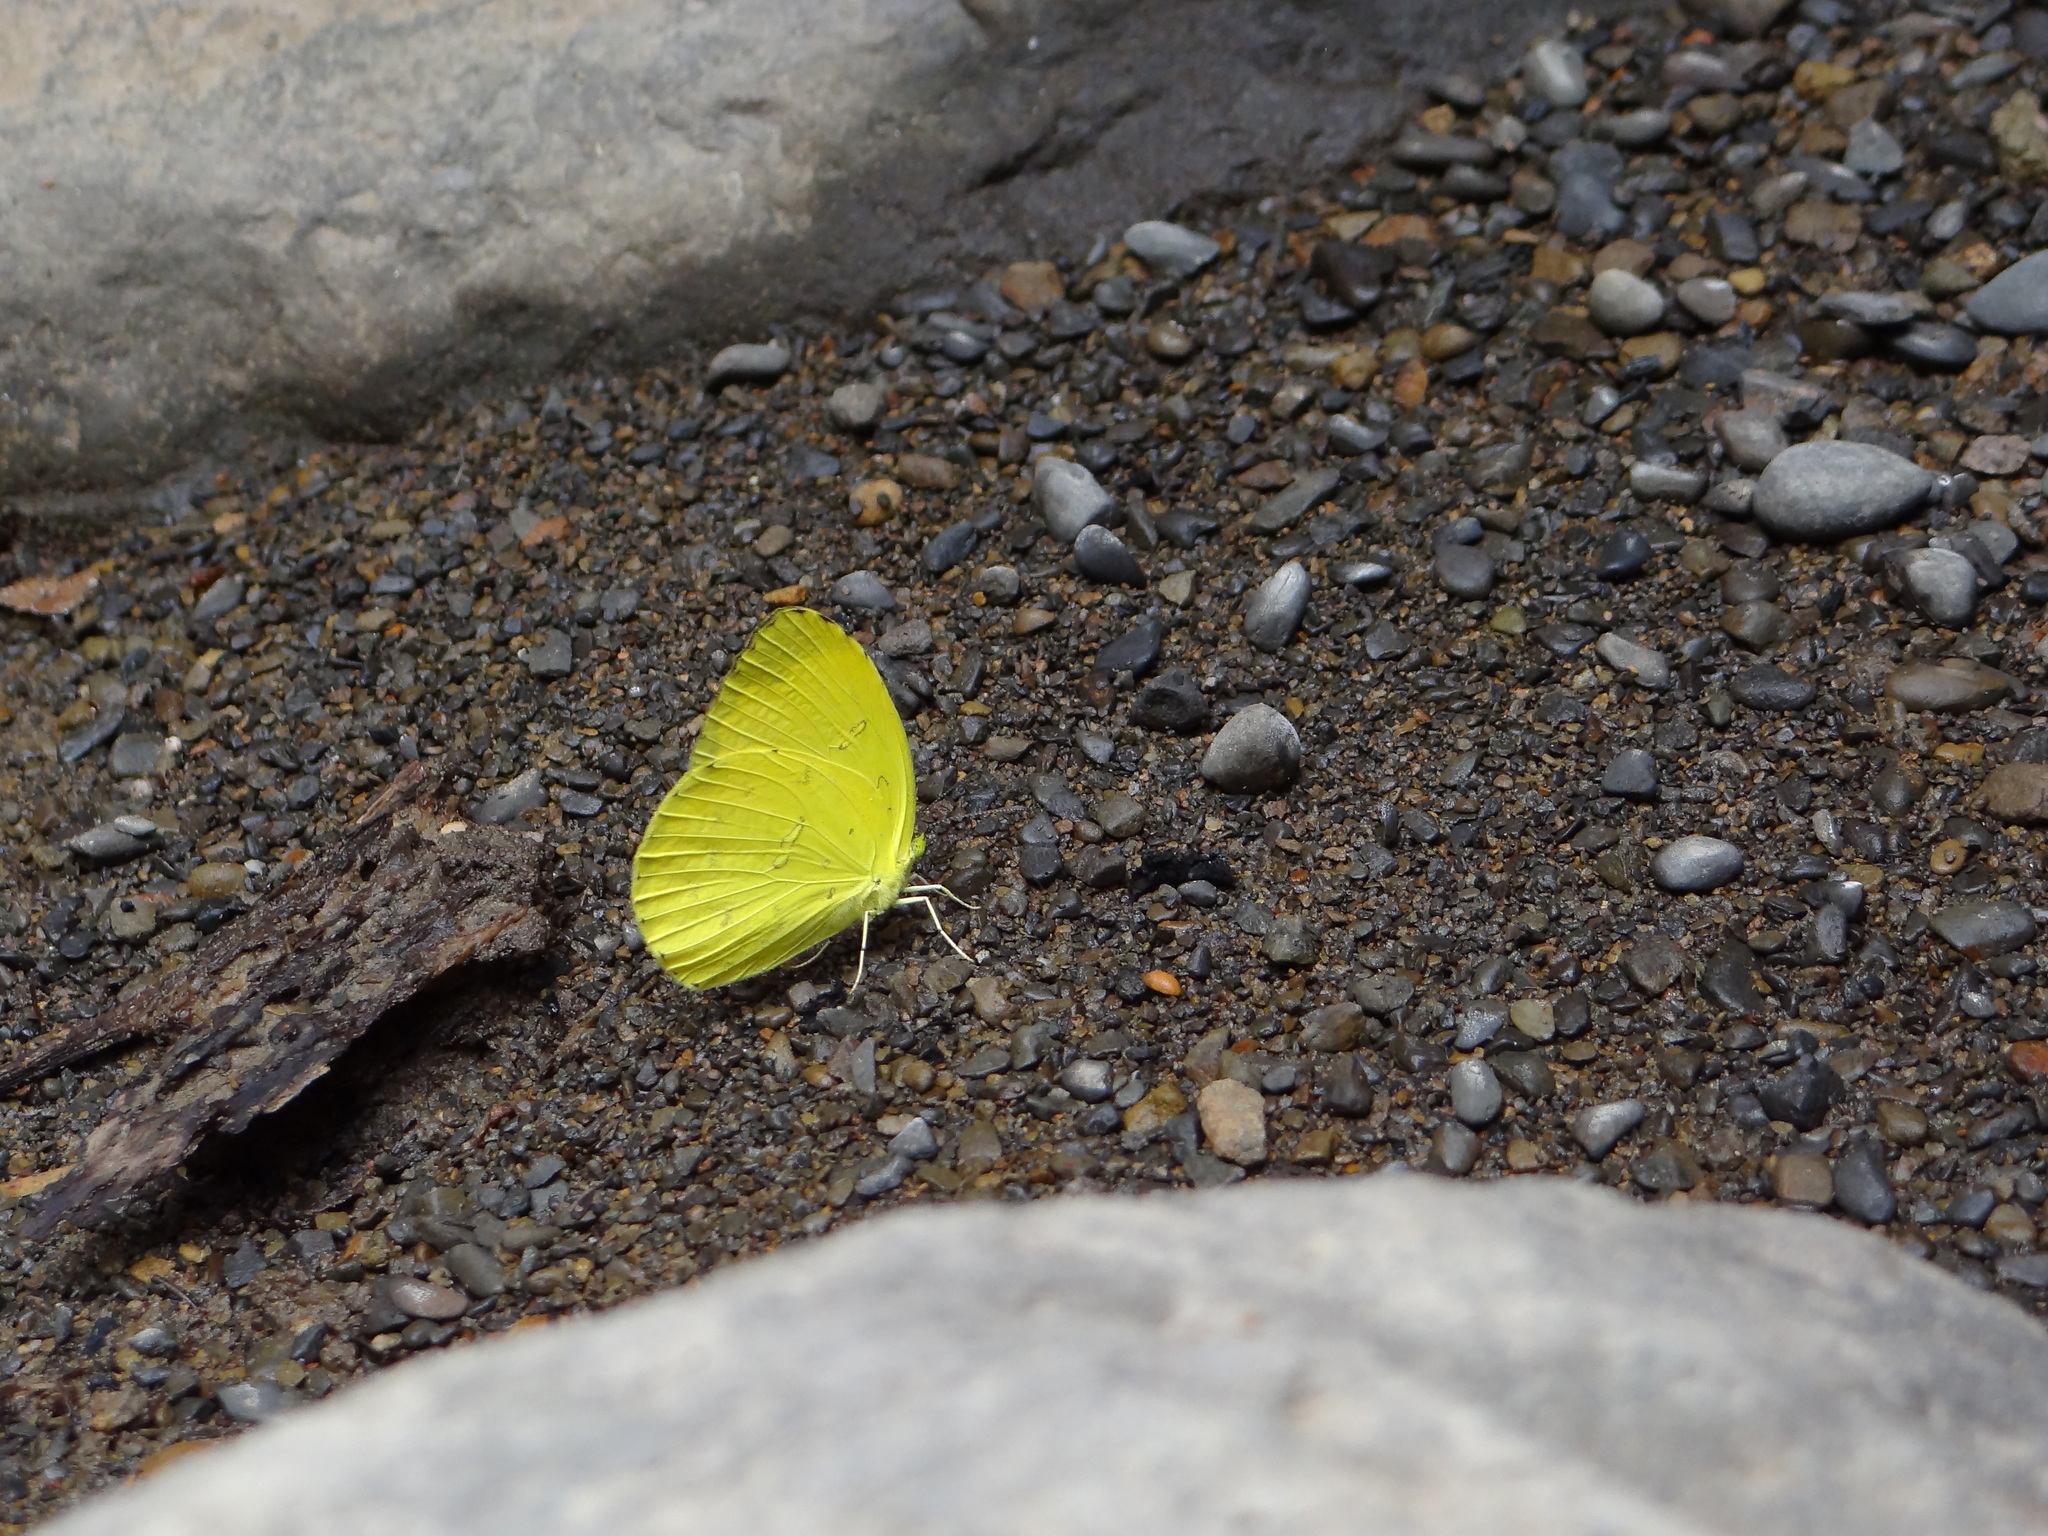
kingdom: Animalia
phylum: Arthropoda
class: Insecta
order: Lepidoptera
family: Pieridae
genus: Eurema
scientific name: Eurema blanda
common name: Three-spot grass yellow
